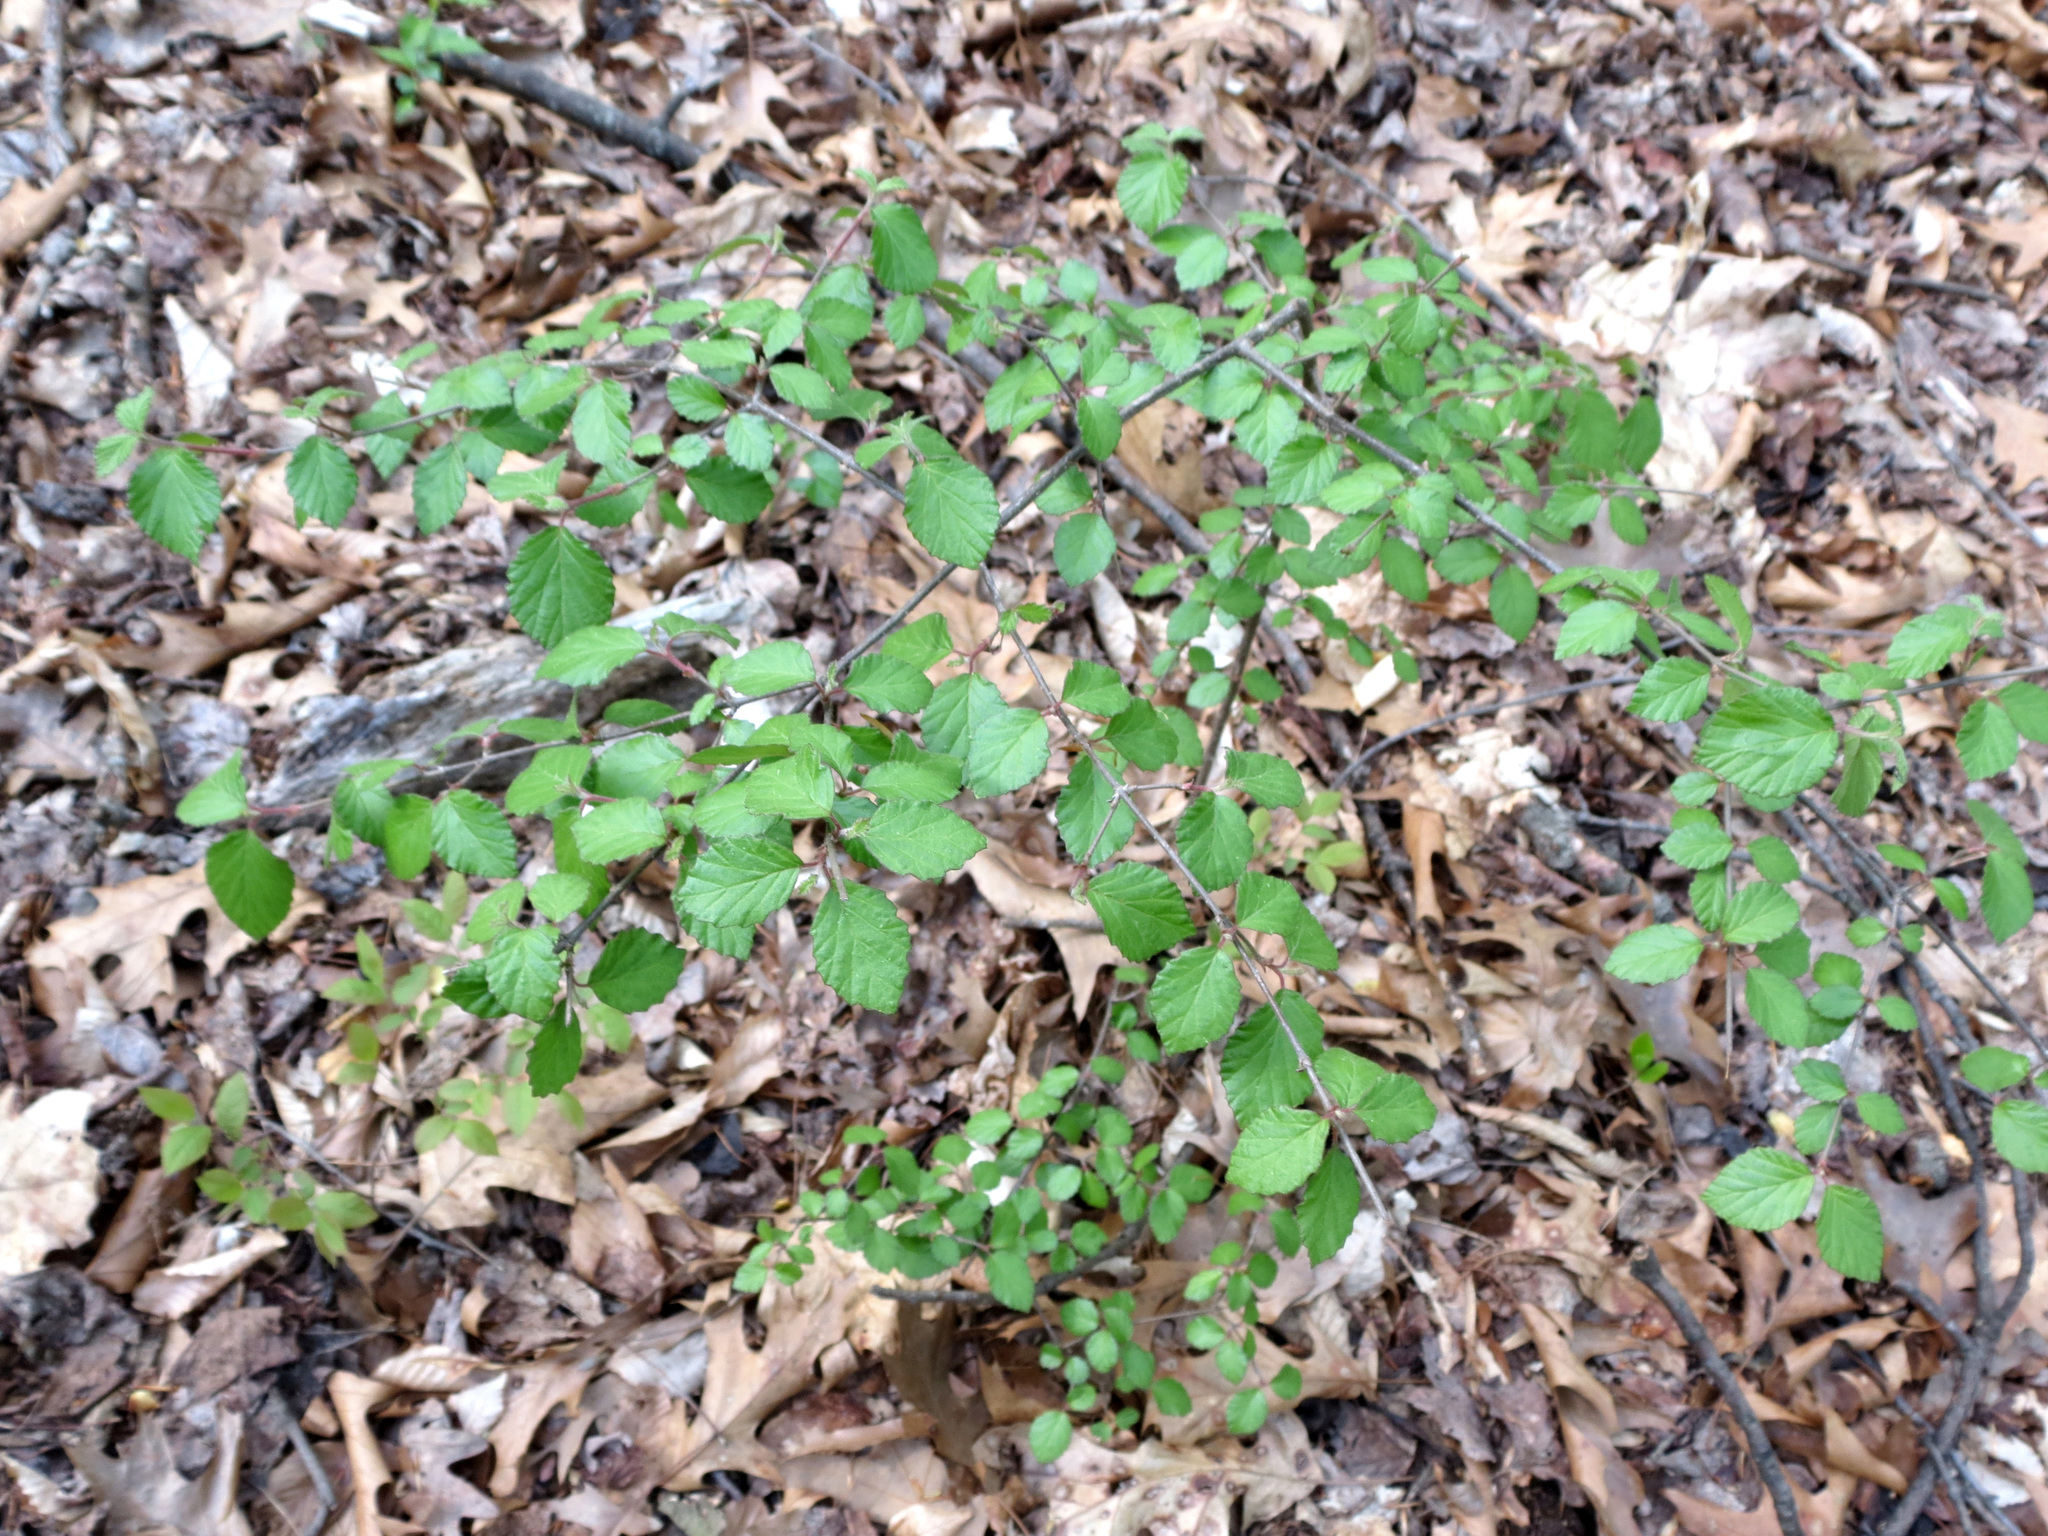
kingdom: Plantae
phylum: Tracheophyta
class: Magnoliopsida
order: Dipsacales
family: Viburnaceae
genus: Viburnum
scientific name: Viburnum dentatum
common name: Arrow-wood
